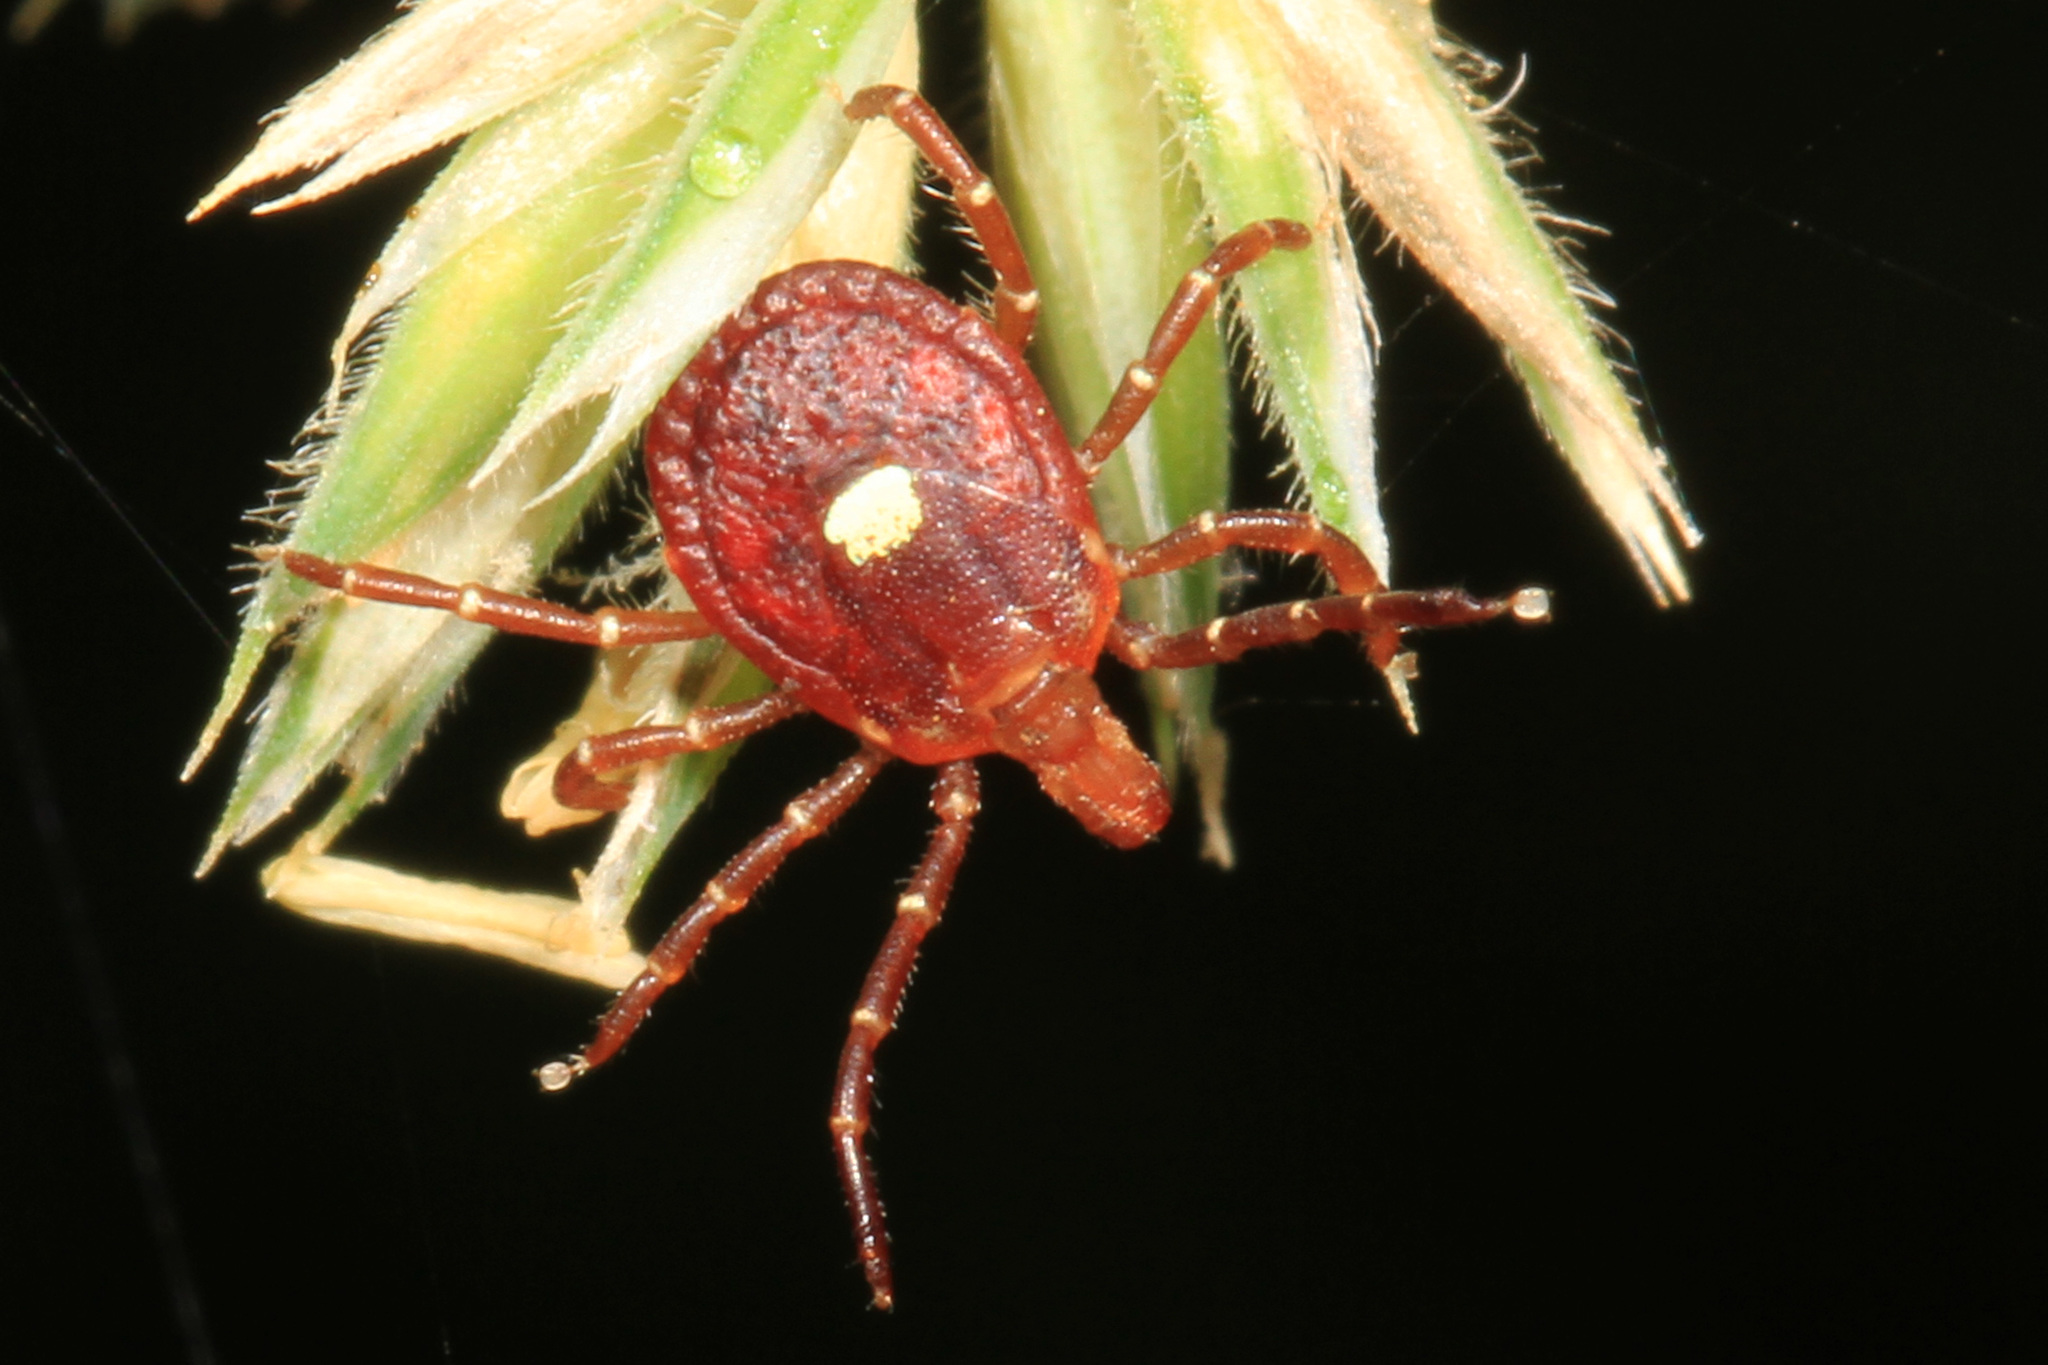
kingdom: Animalia
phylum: Arthropoda
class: Arachnida
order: Ixodida
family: Ixodidae
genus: Amblyomma
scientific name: Amblyomma americanum
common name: Lone star tick
